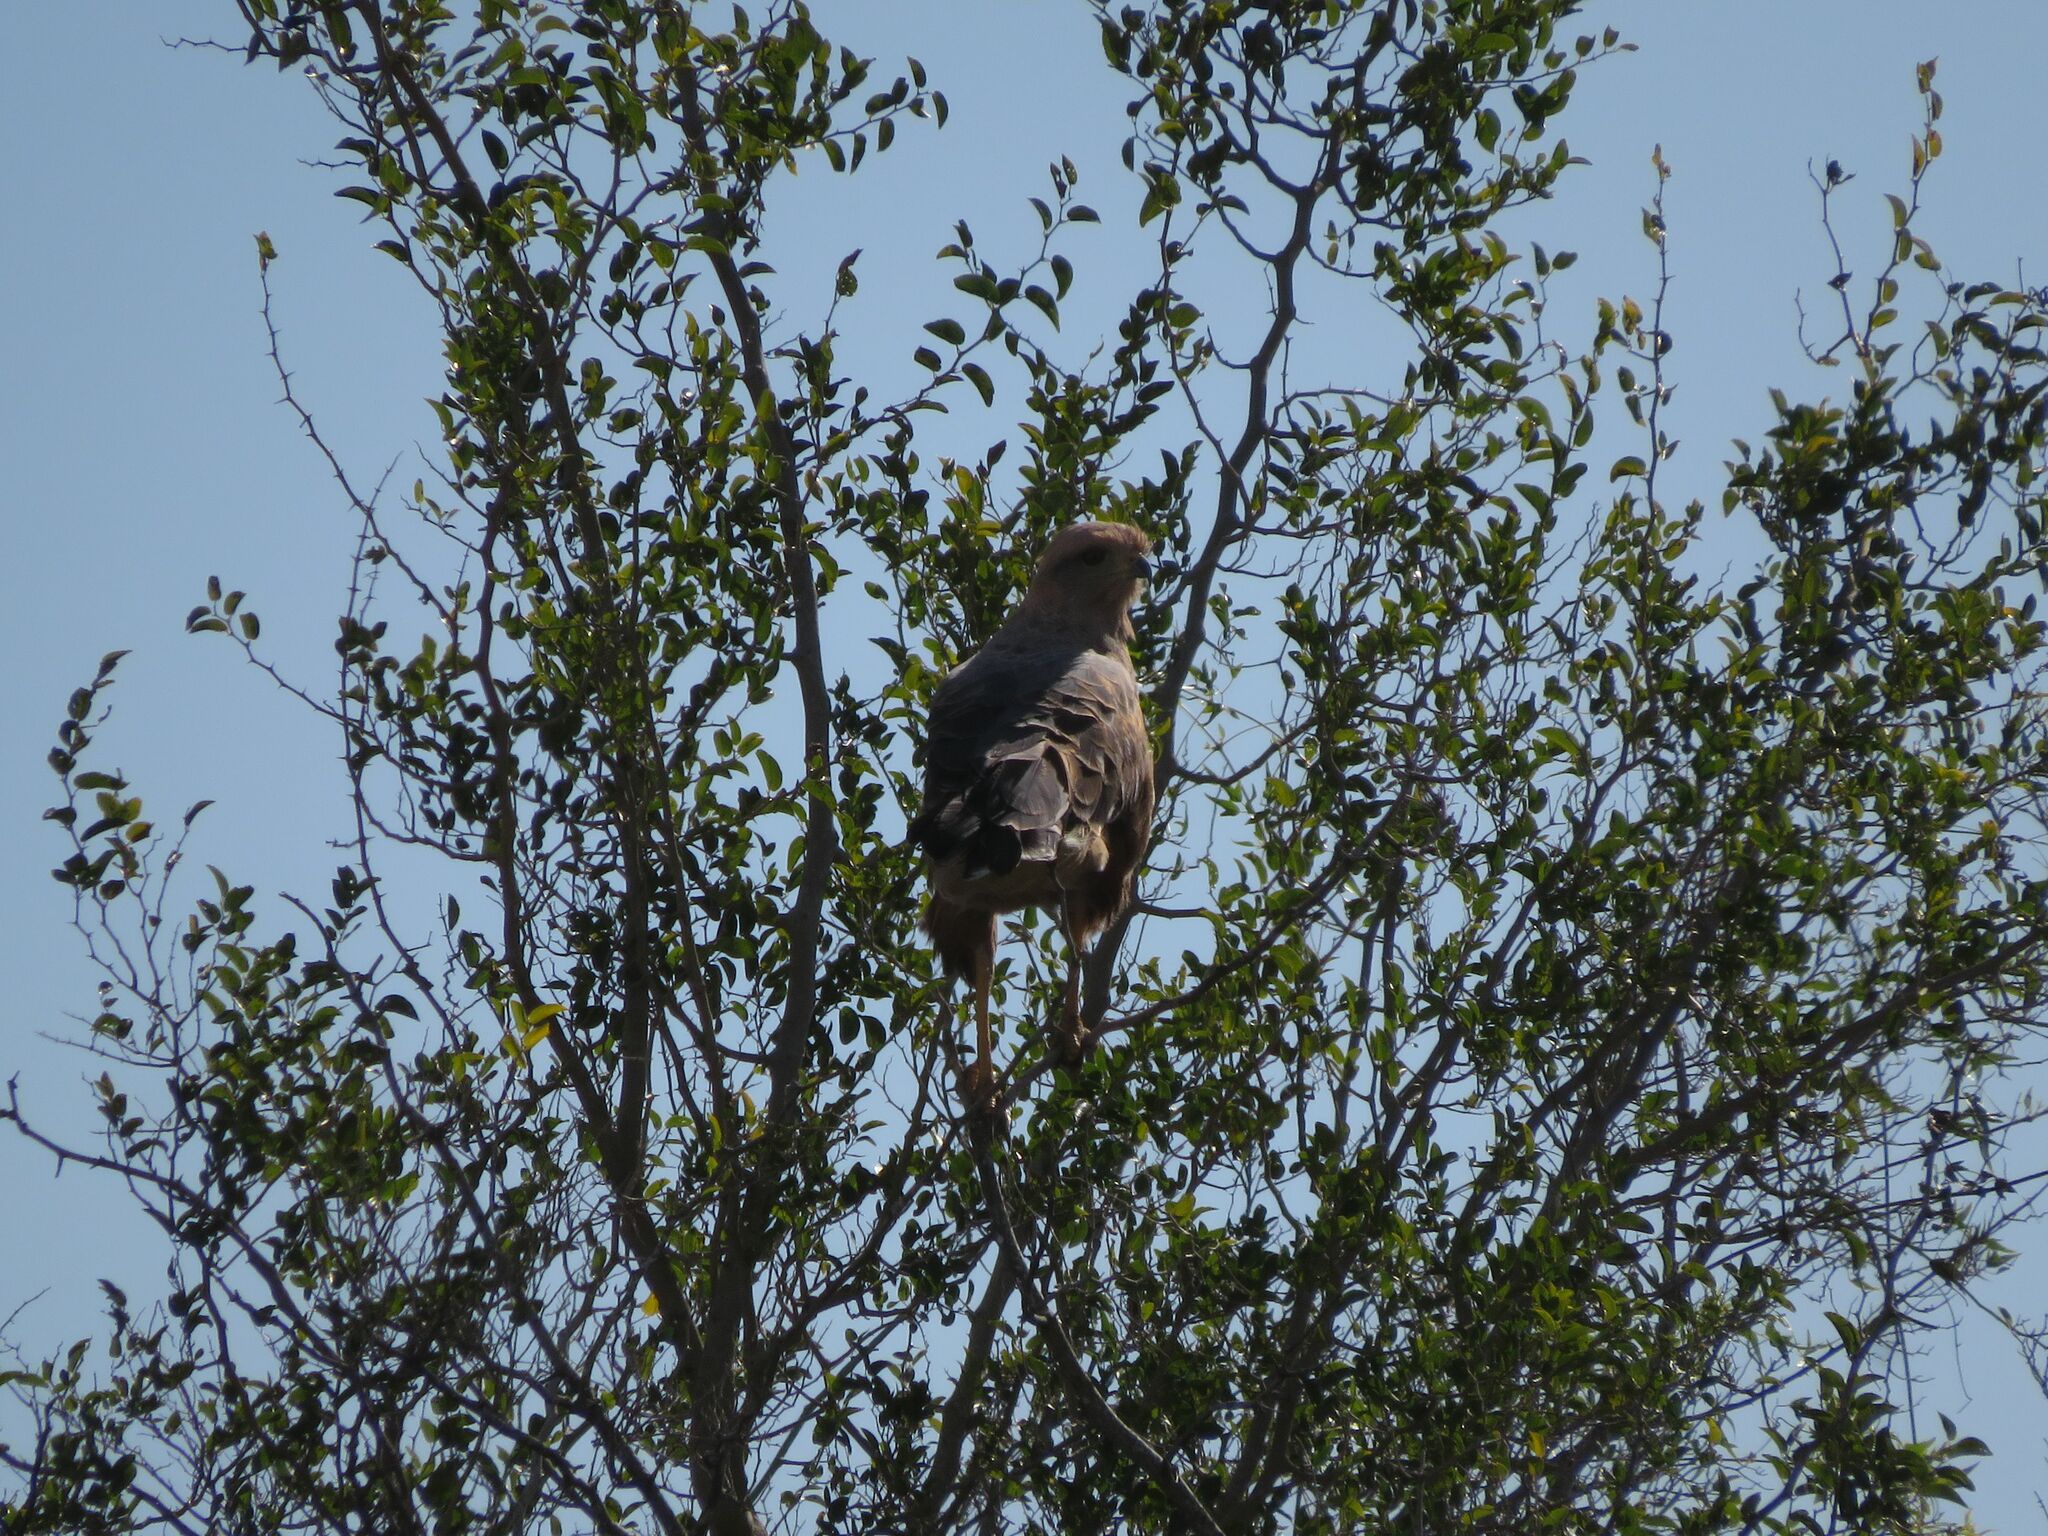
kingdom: Animalia
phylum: Chordata
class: Aves
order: Accipitriformes
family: Accipitridae
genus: Buteogallus
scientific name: Buteogallus meridionalis
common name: Savanna hawk
